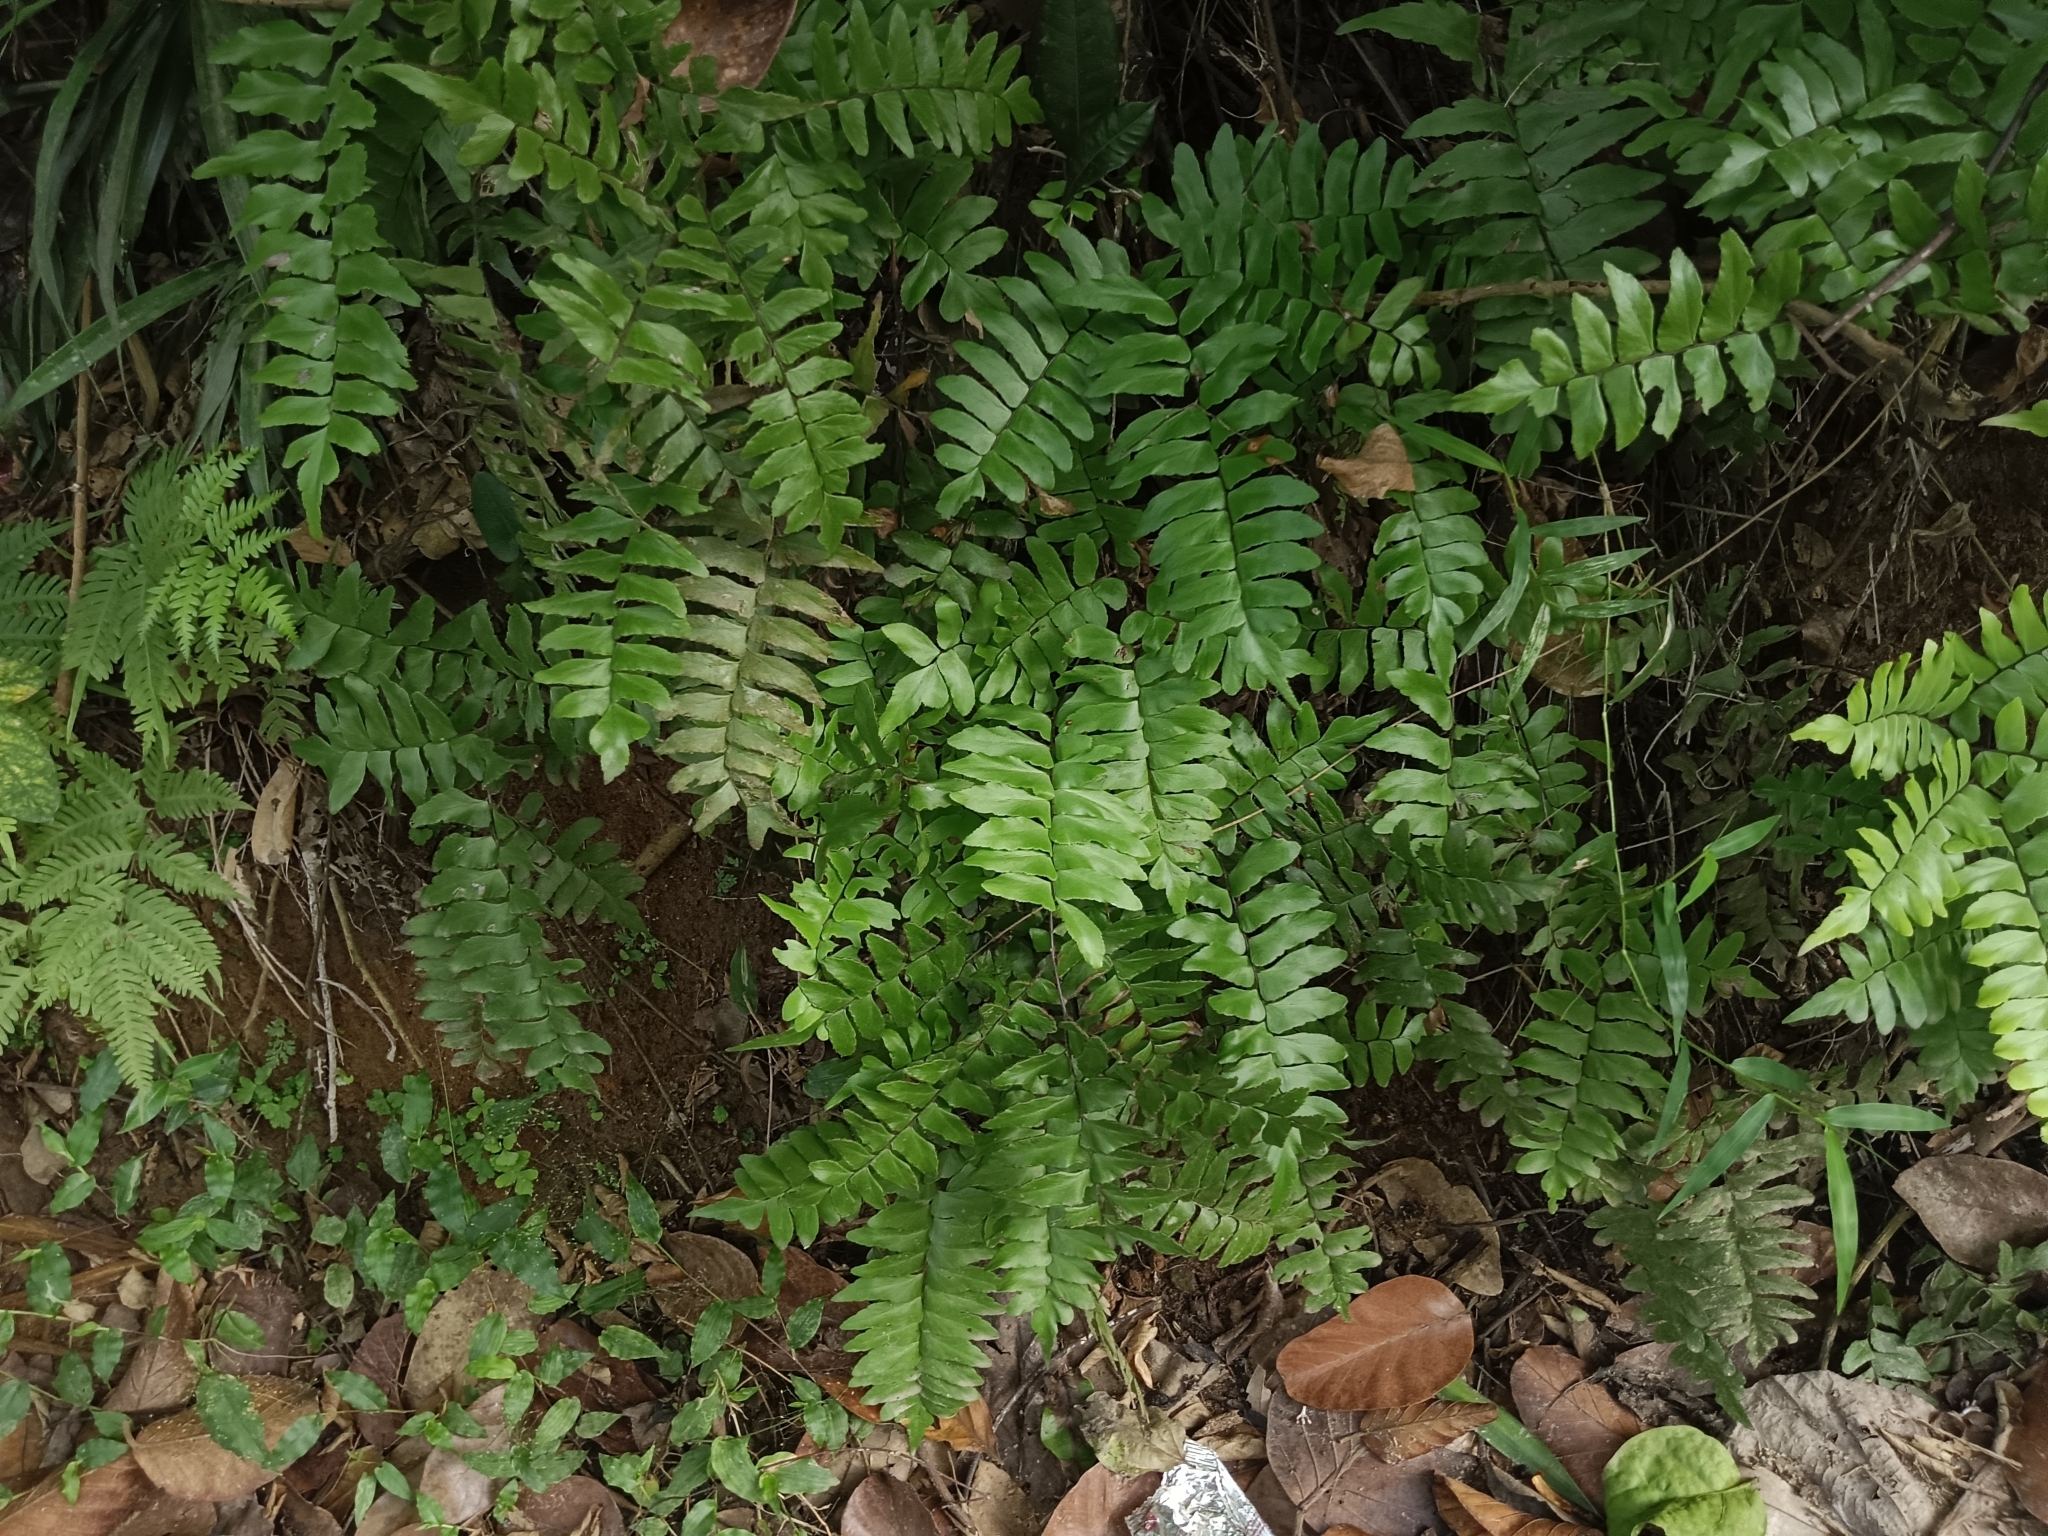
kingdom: Plantae
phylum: Tracheophyta
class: Polypodiopsida
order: Polypodiales
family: Pteridaceae
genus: Adiantum
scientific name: Adiantum latifolium
